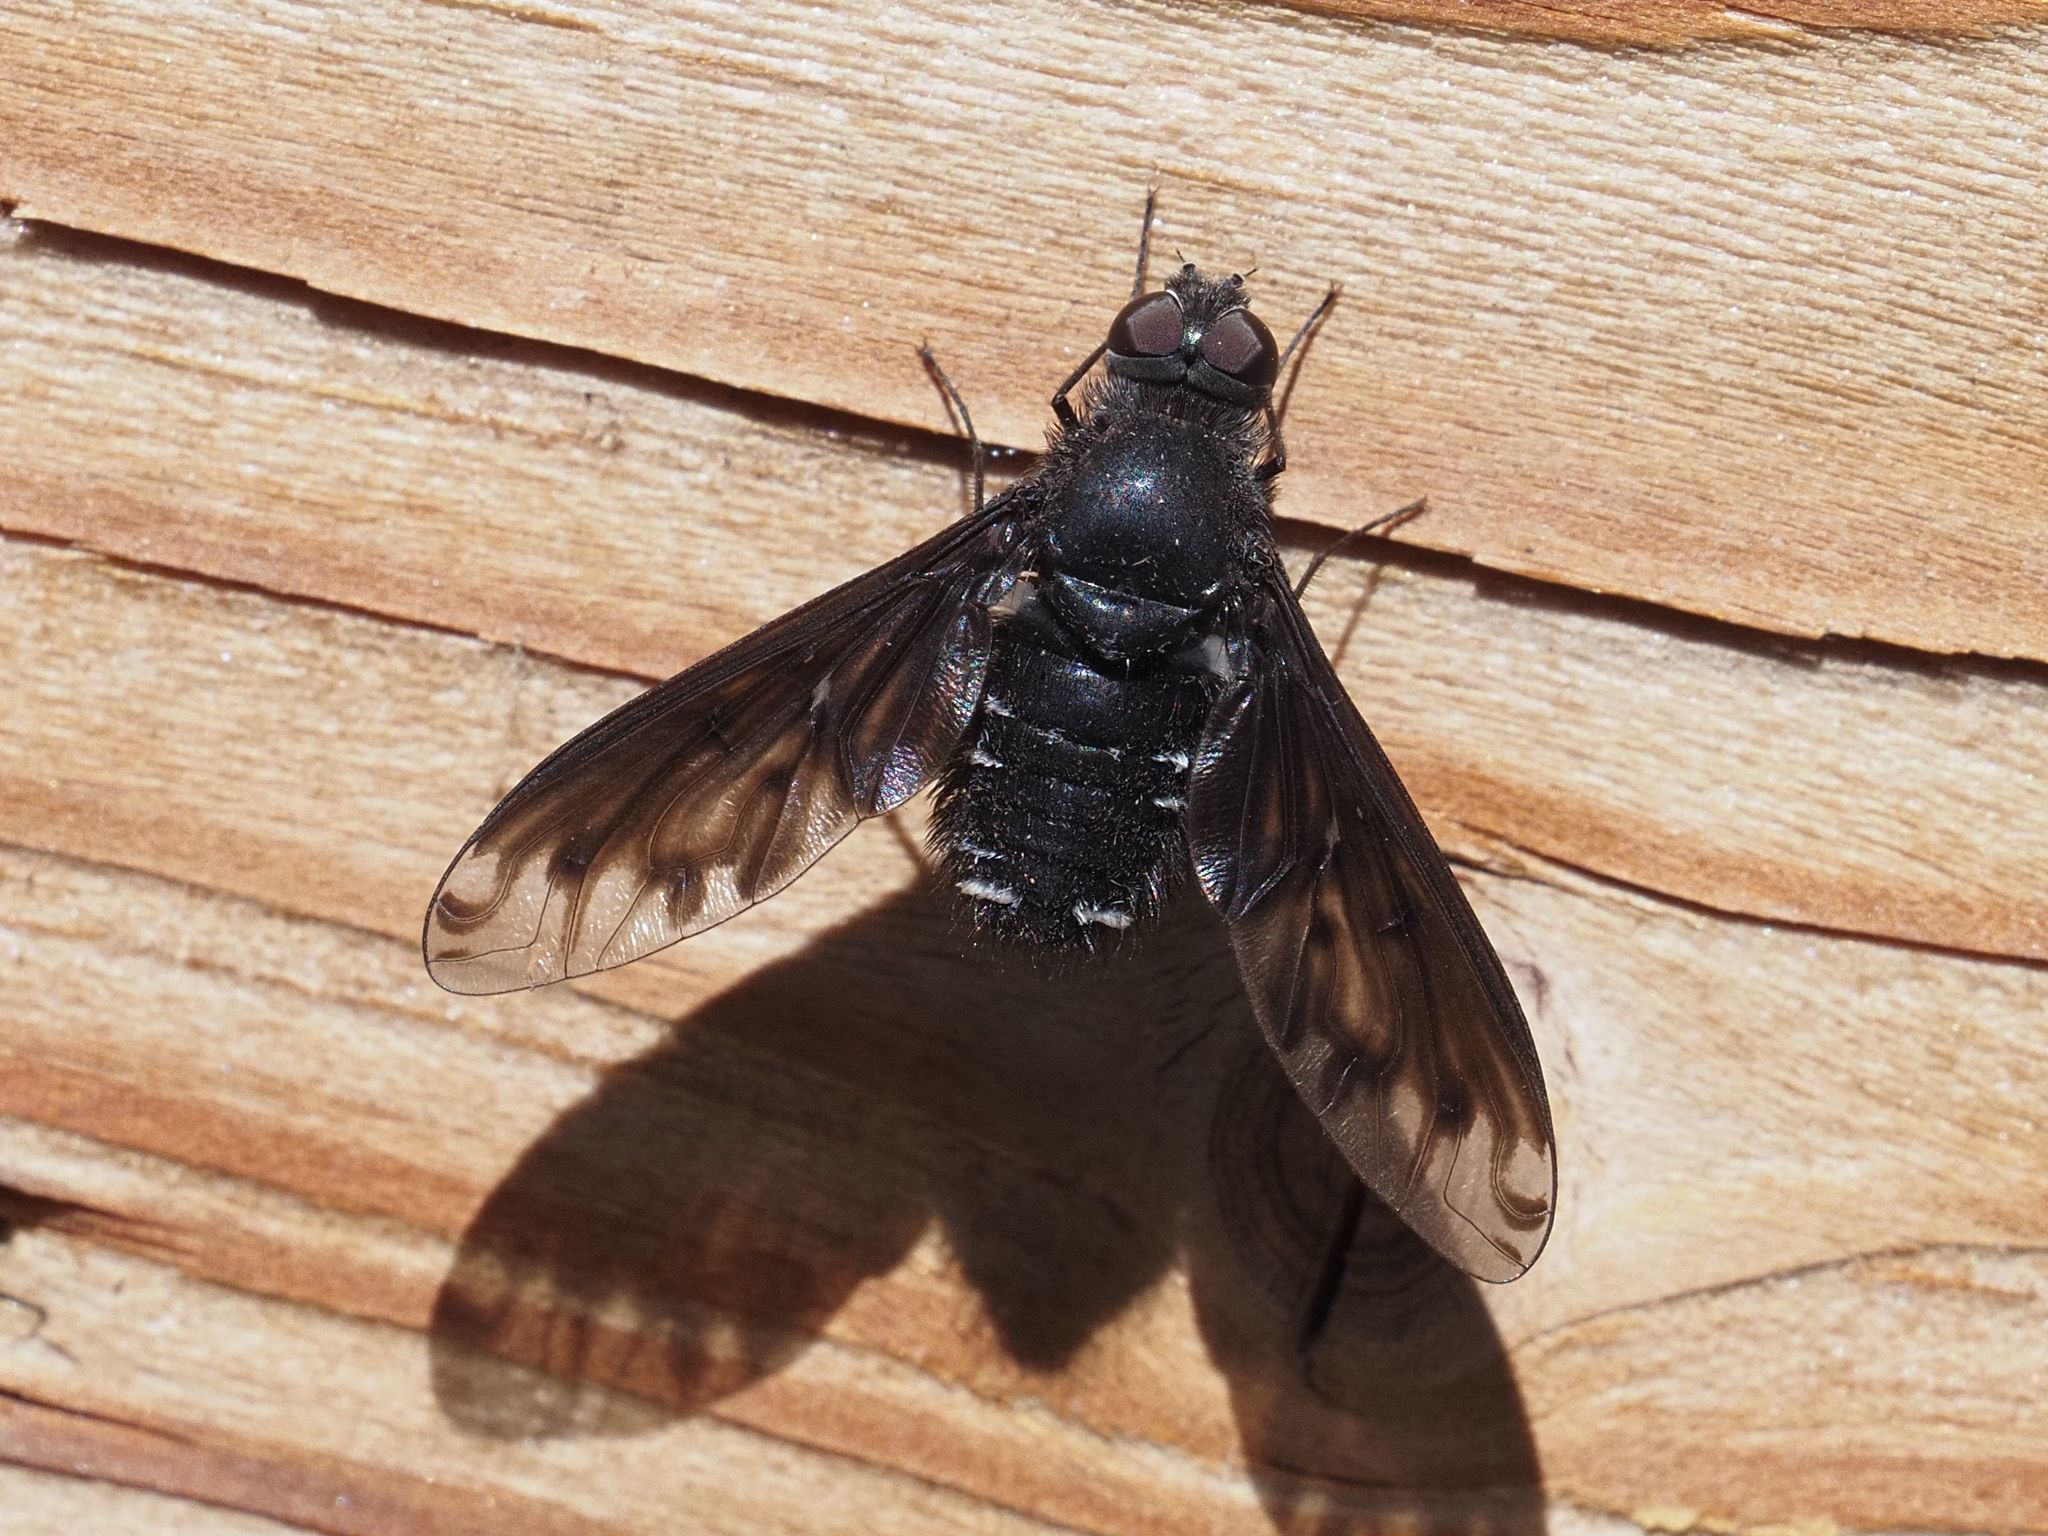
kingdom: Animalia
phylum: Arthropoda
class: Insecta
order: Diptera
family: Bombyliidae
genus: Anthrax
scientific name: Anthrax anthrax
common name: Anthracite bee-fly
